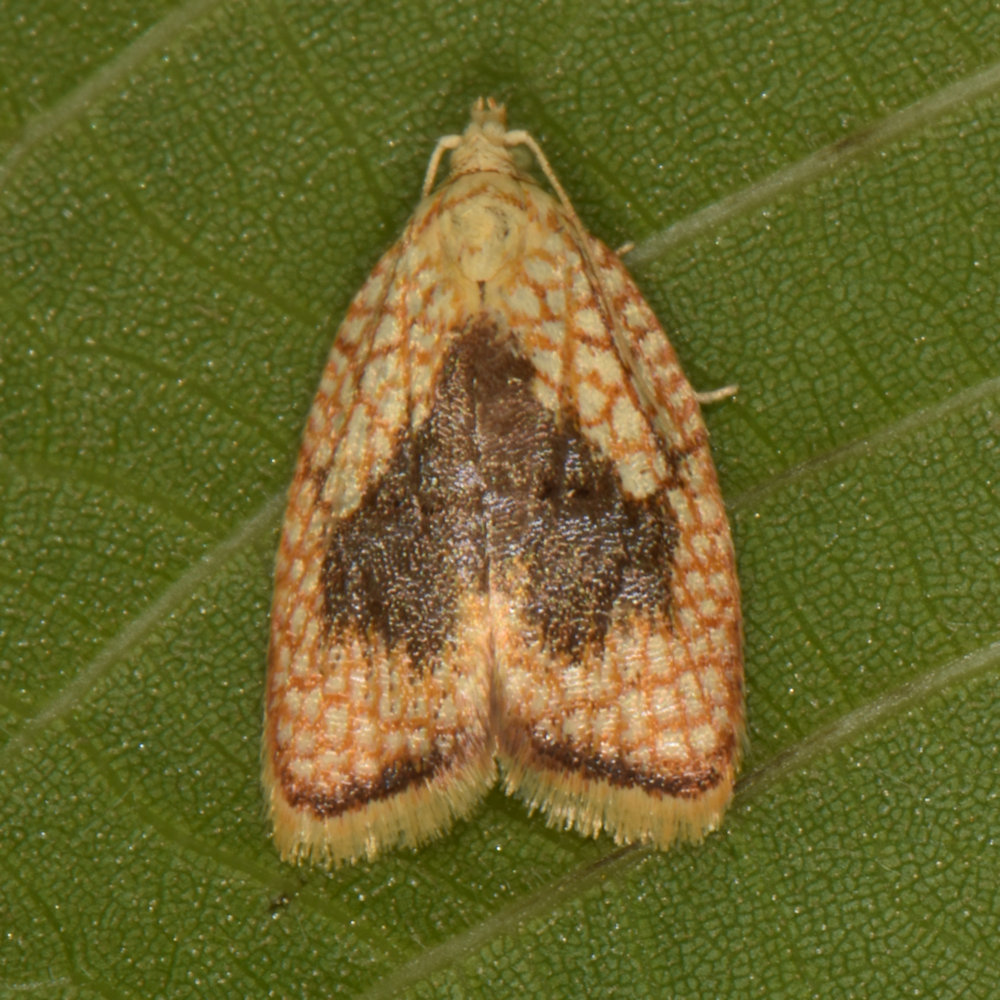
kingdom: Animalia
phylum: Arthropoda
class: Insecta
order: Lepidoptera
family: Tortricidae
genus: Acleris
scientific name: Acleris forsskaleana
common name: Maple button
